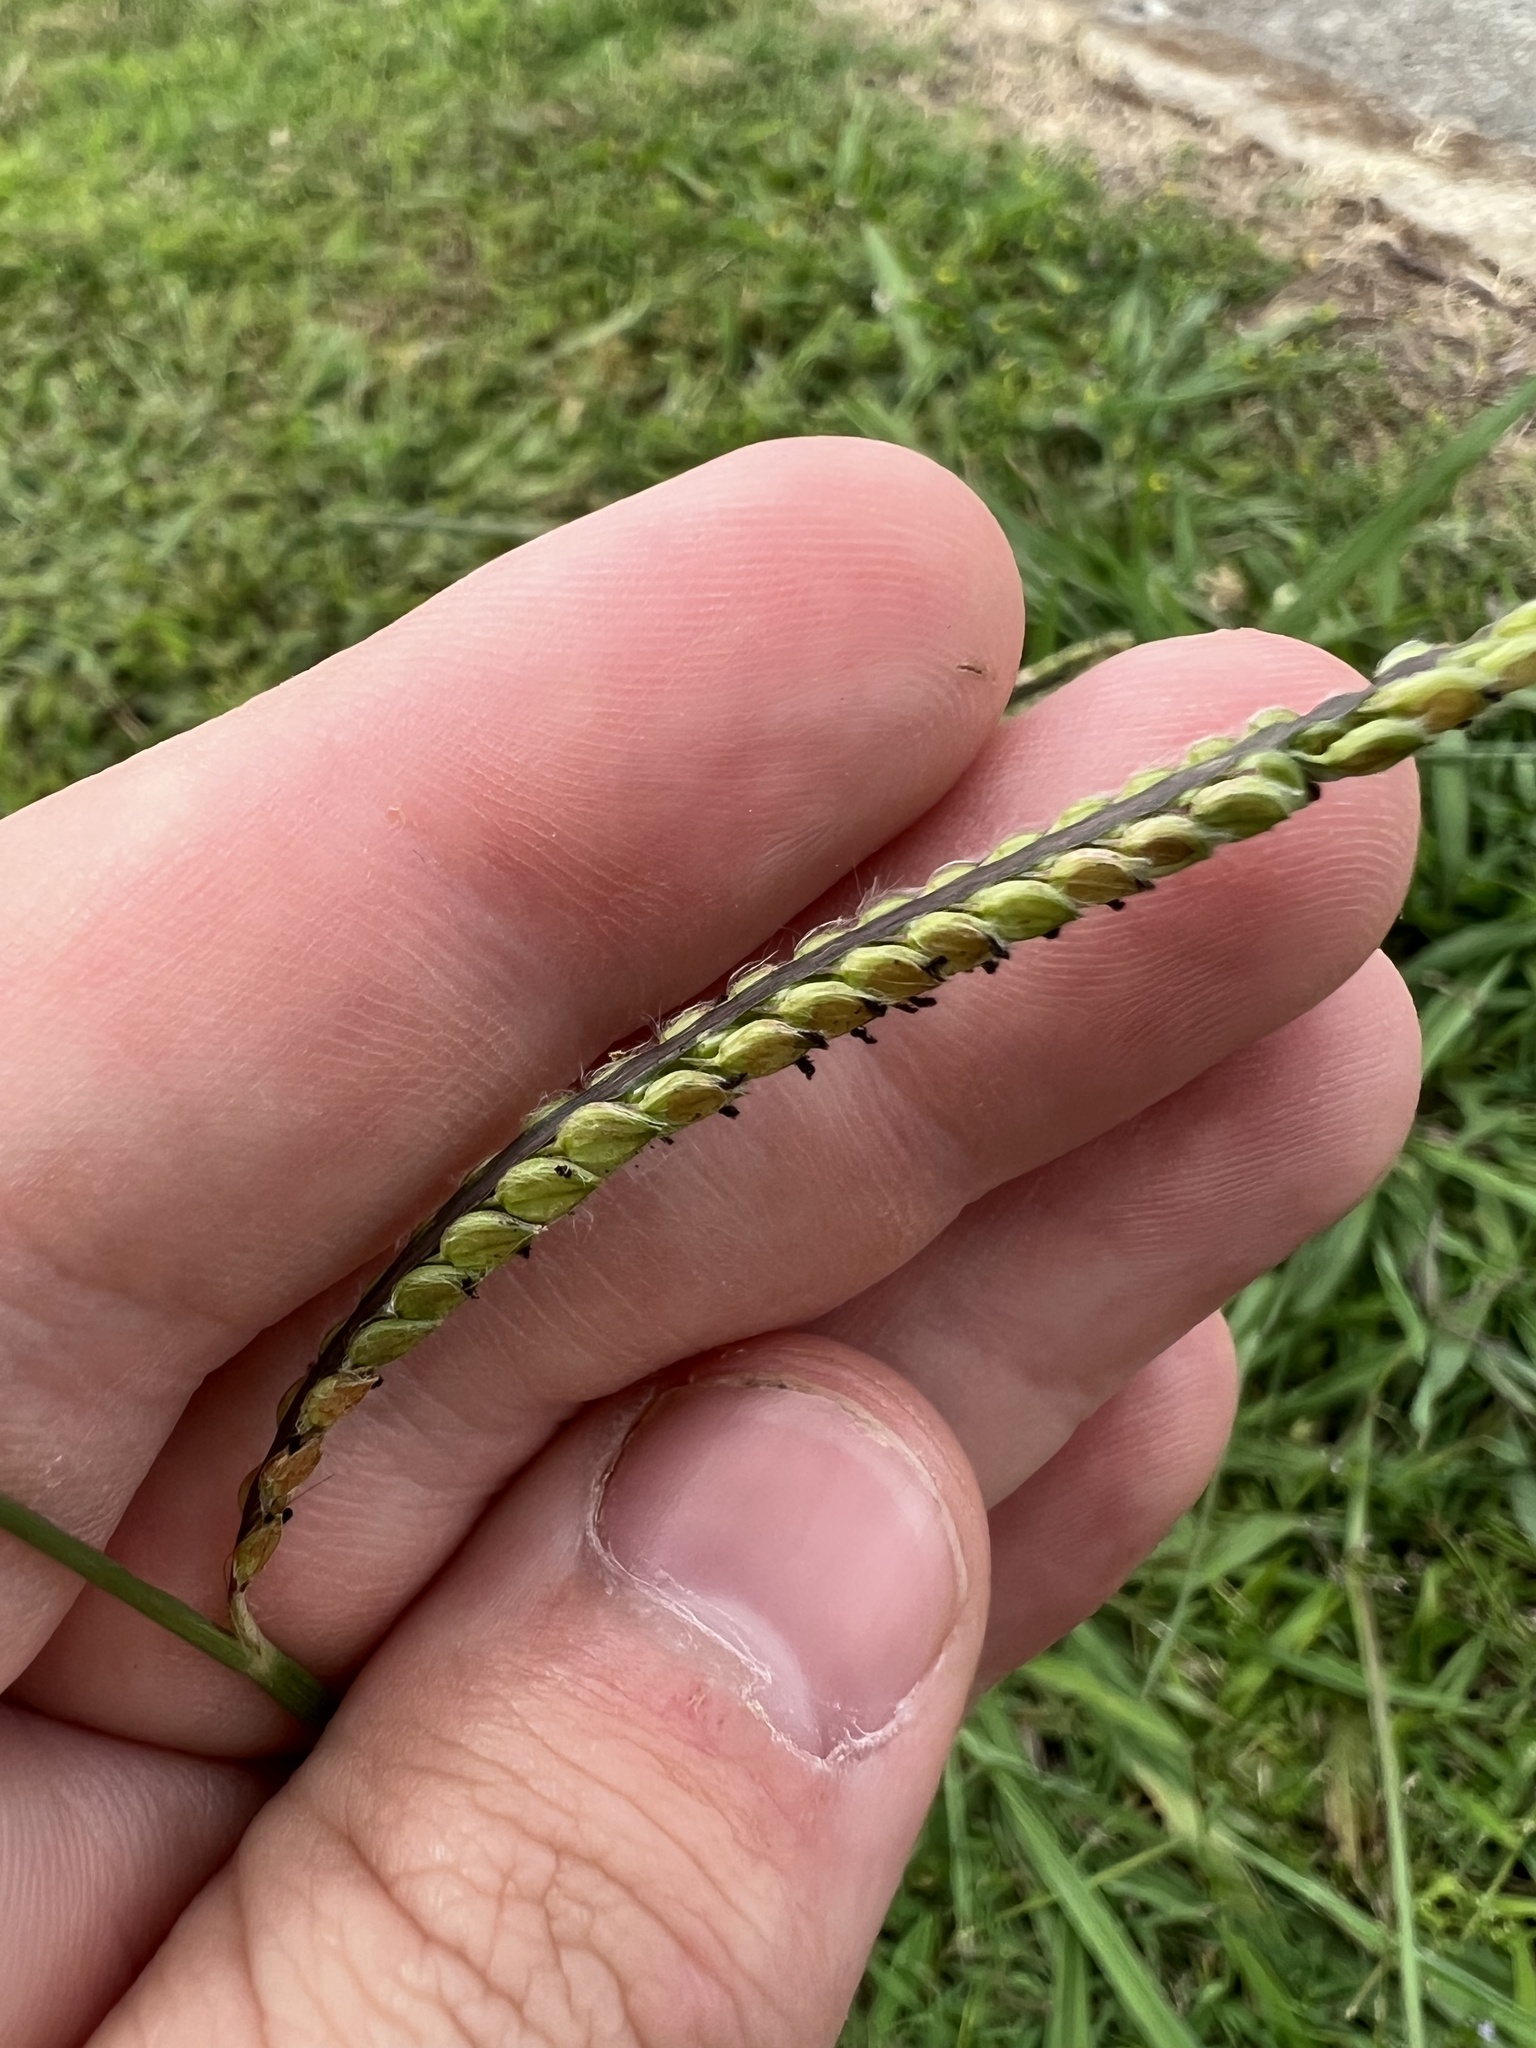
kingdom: Plantae
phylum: Tracheophyta
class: Liliopsida
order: Poales
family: Poaceae
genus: Paspalum
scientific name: Paspalum dilatatum
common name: Dallisgrass
